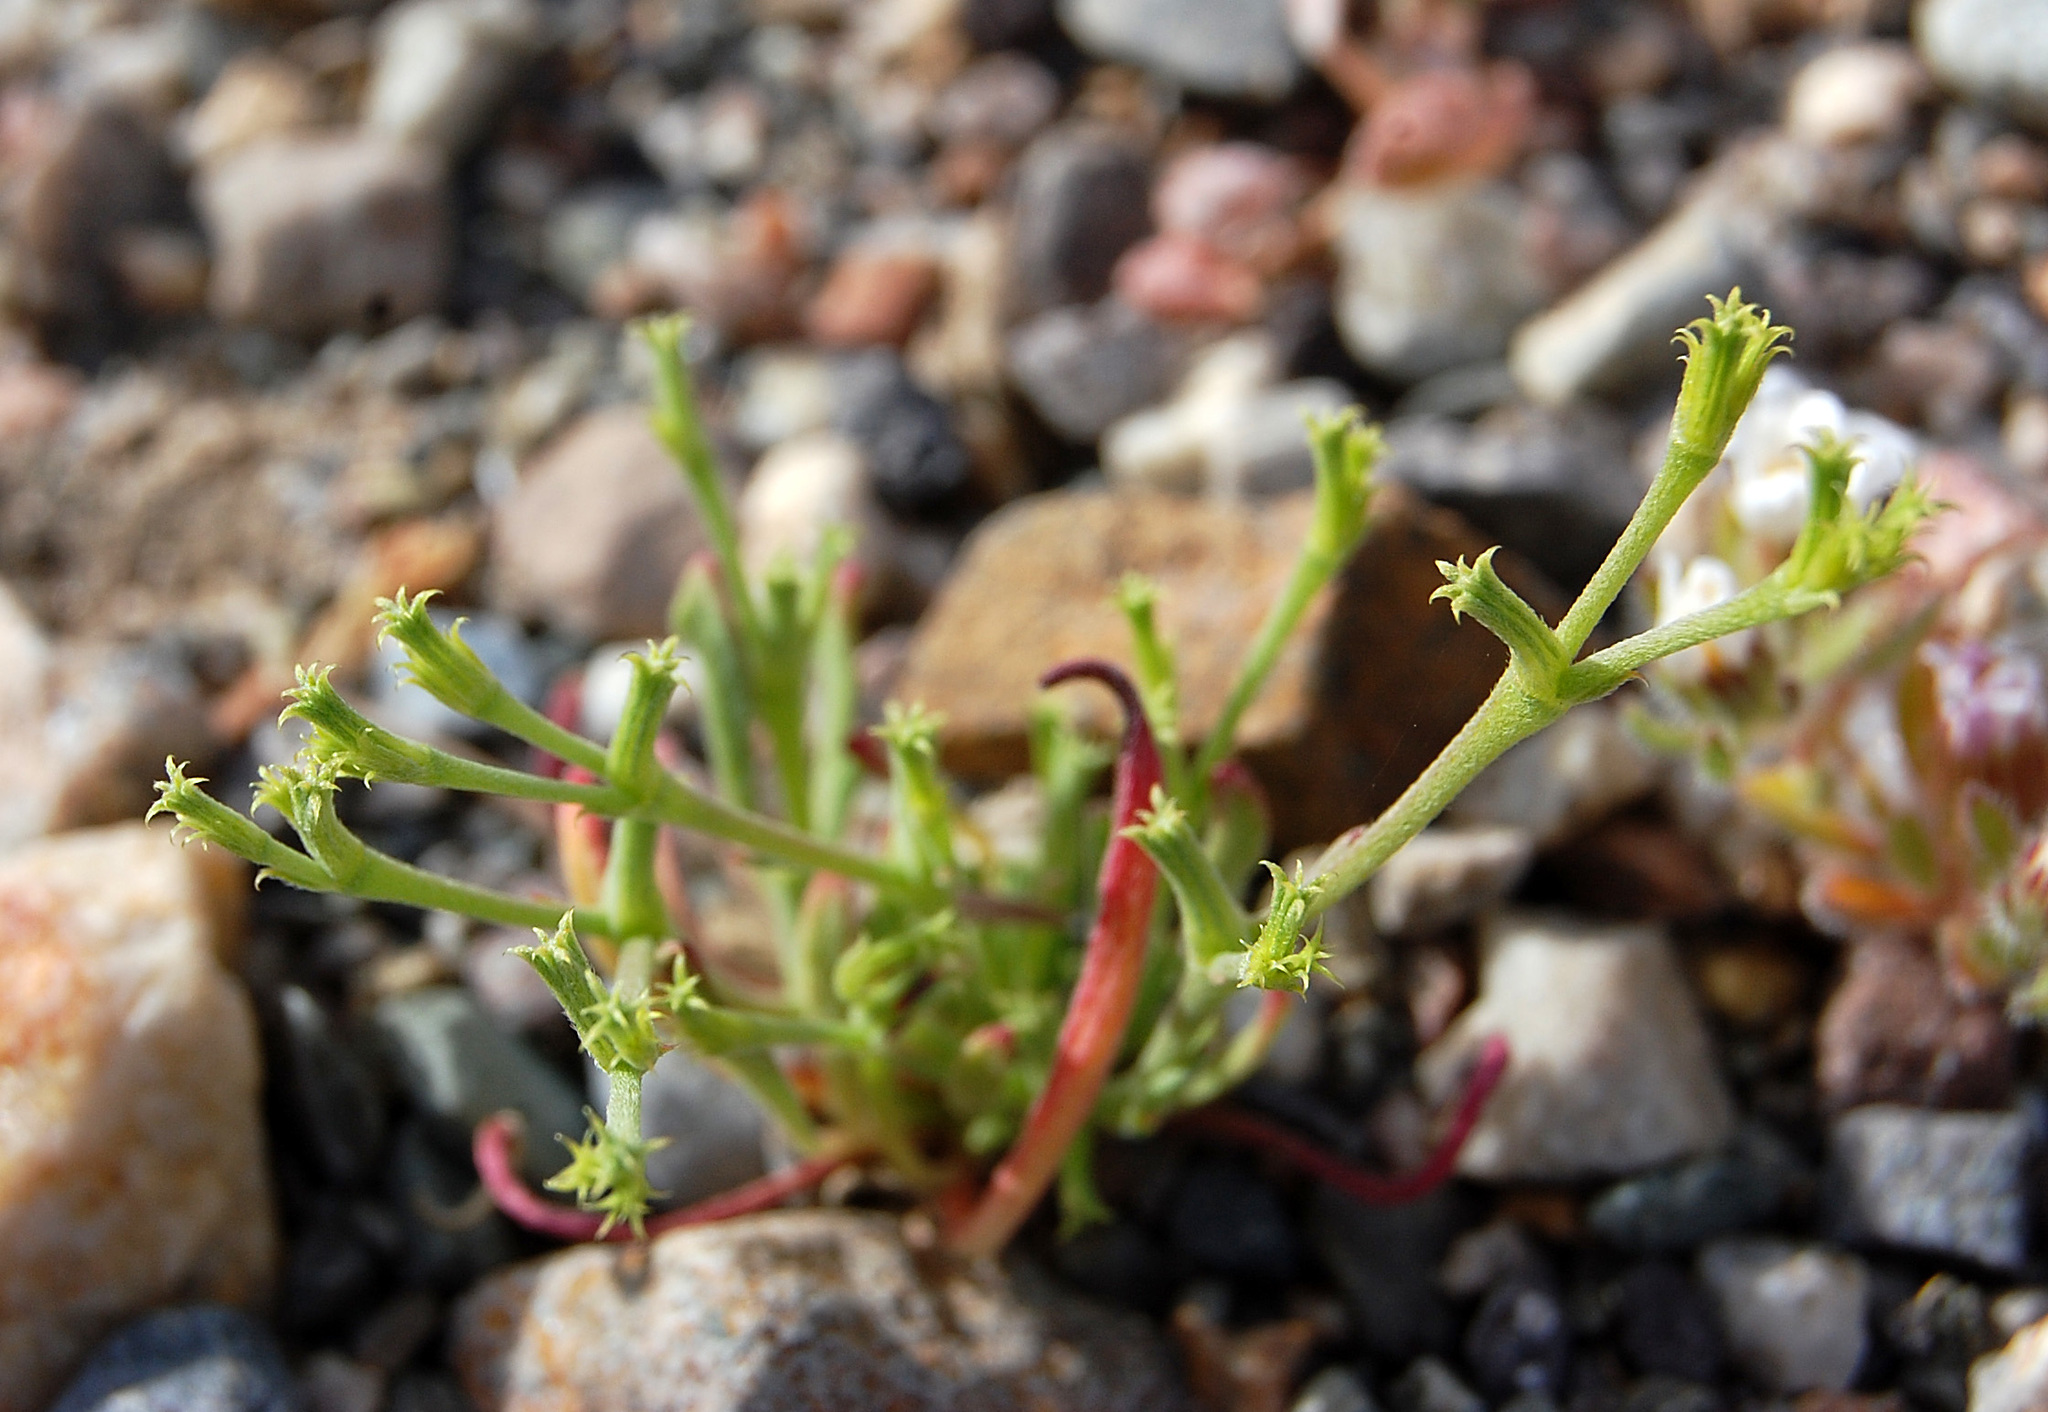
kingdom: Plantae
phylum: Tracheophyta
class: Magnoliopsida
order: Caryophyllales
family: Polygonaceae
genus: Chorizanthe
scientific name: Chorizanthe brevicornu
